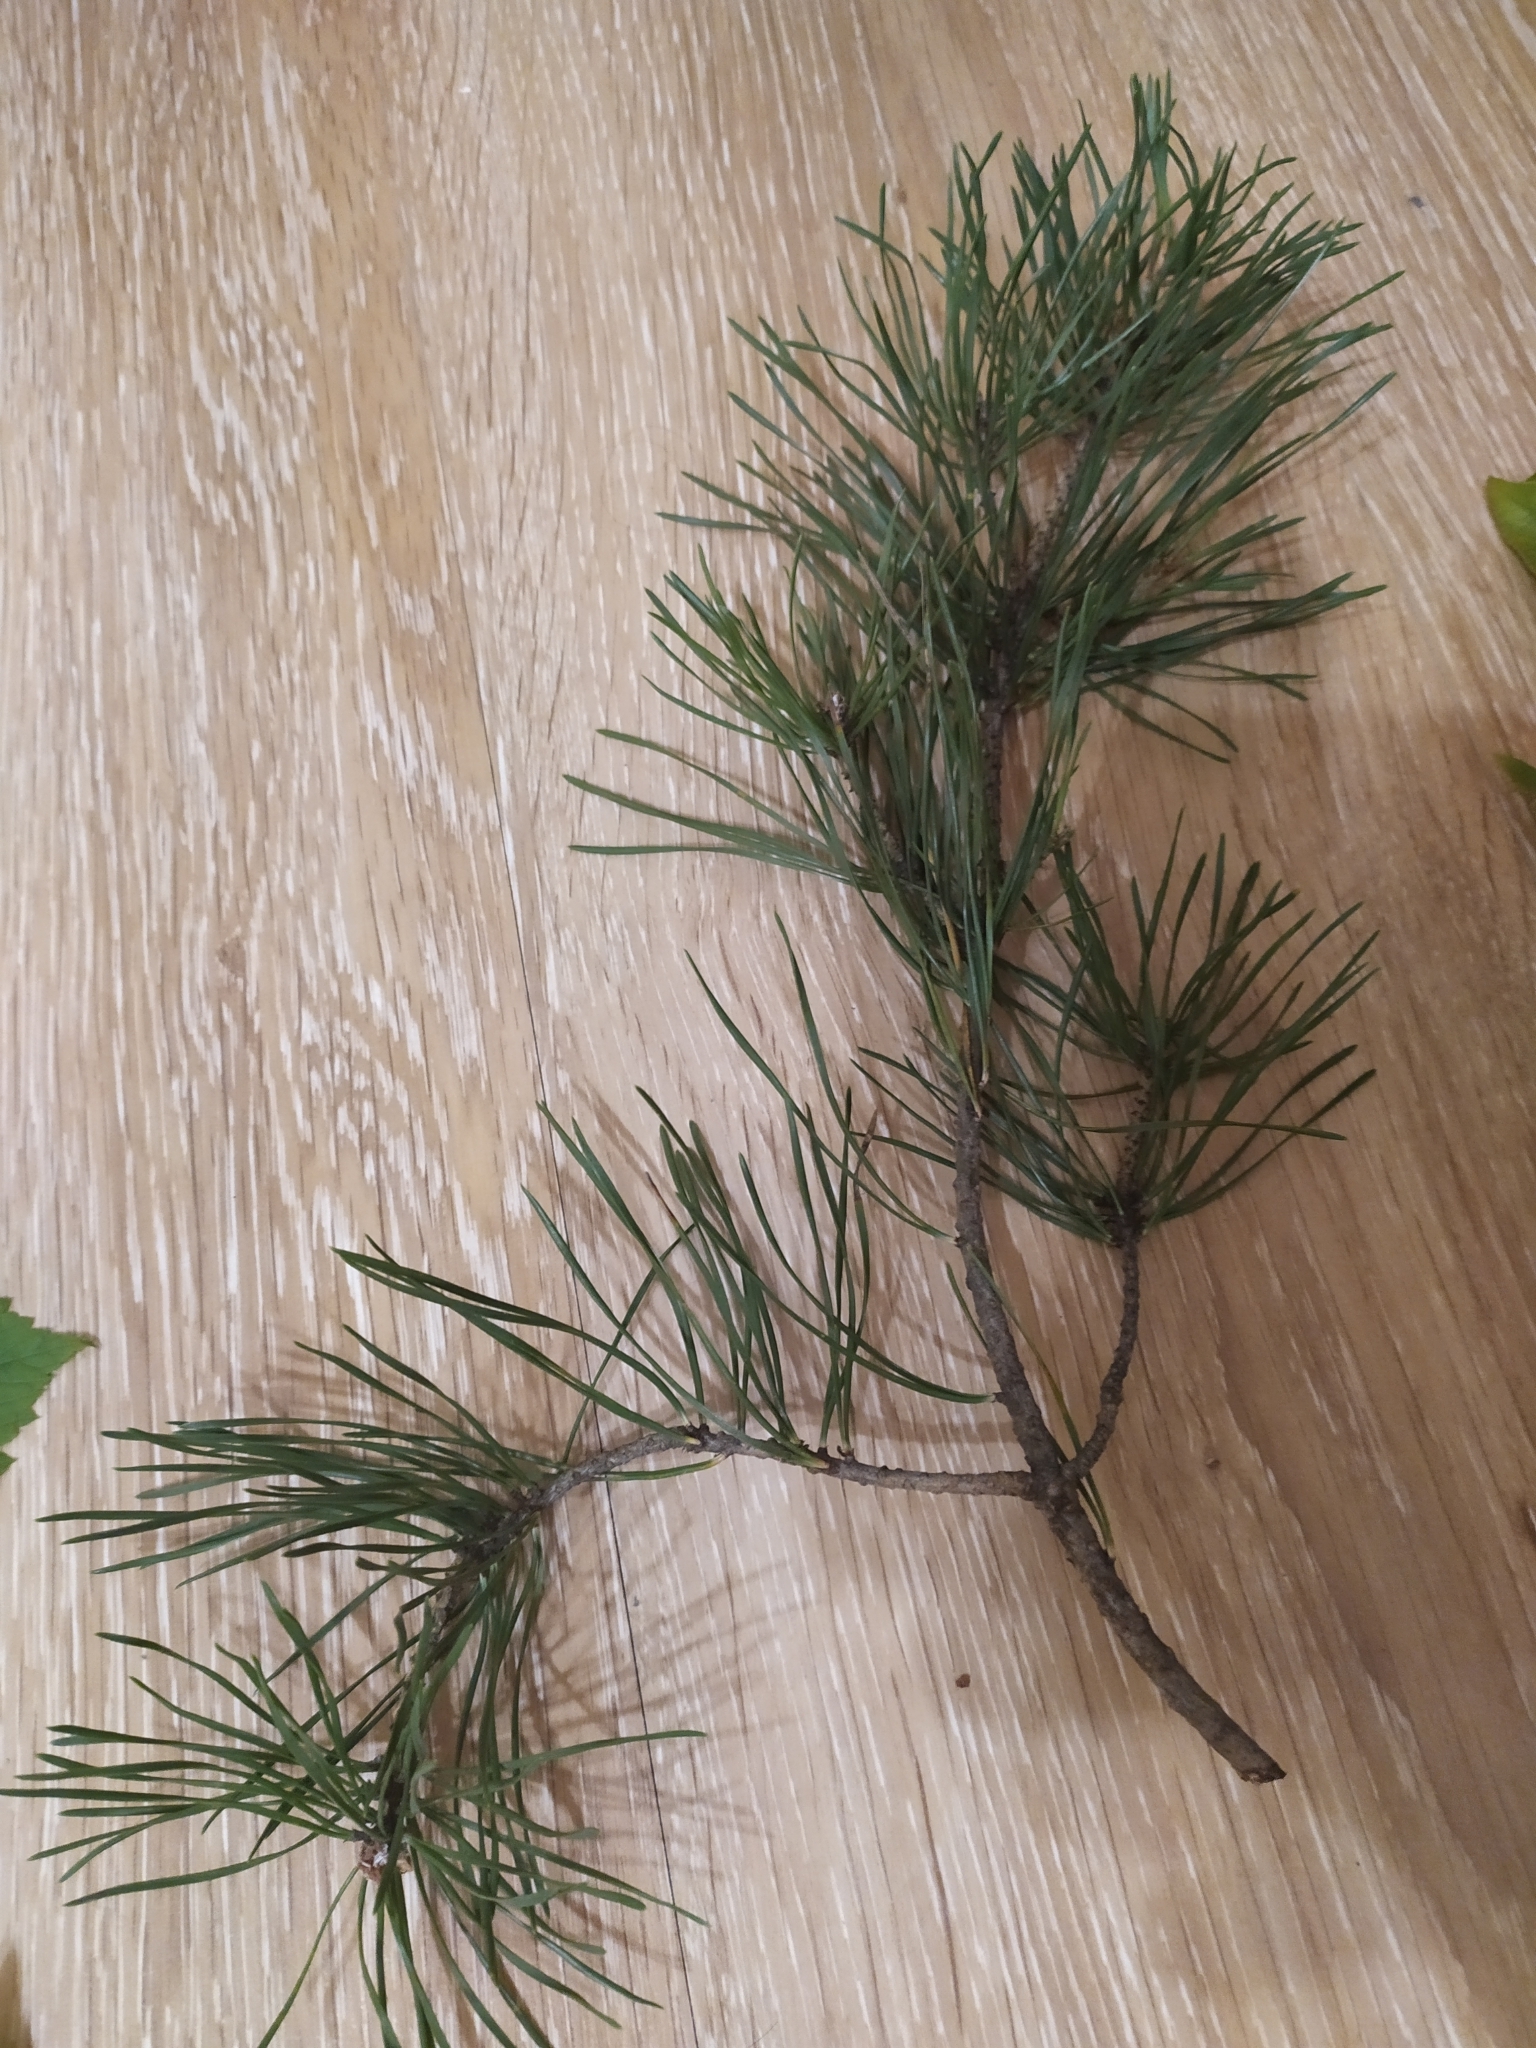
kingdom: Plantae
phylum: Tracheophyta
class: Pinopsida
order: Pinales
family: Pinaceae
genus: Pinus
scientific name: Pinus sylvestris
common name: Scots pine
